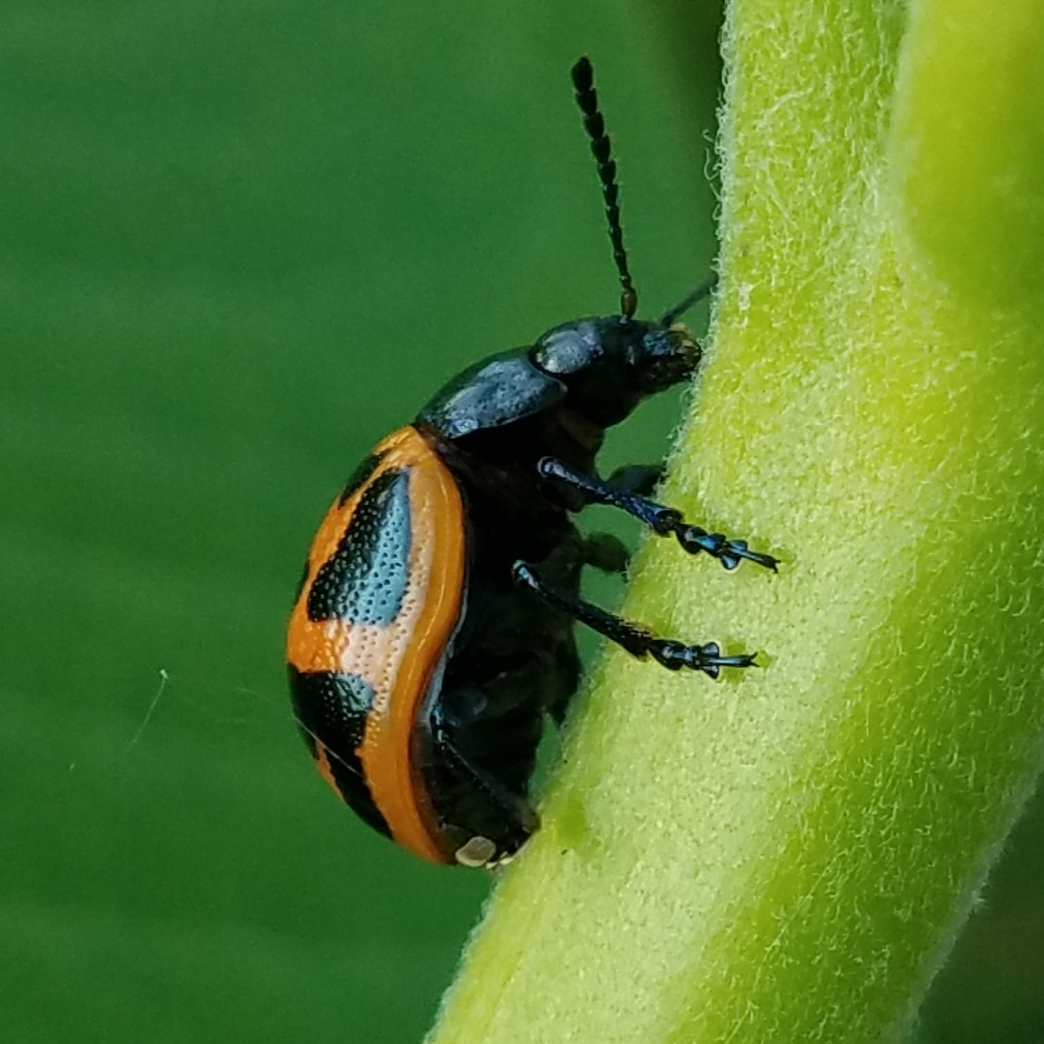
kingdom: Animalia
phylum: Arthropoda
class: Insecta
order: Coleoptera
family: Chrysomelidae
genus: Labidomera
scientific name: Labidomera clivicollis
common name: Swamp milkweed leaf beetle
